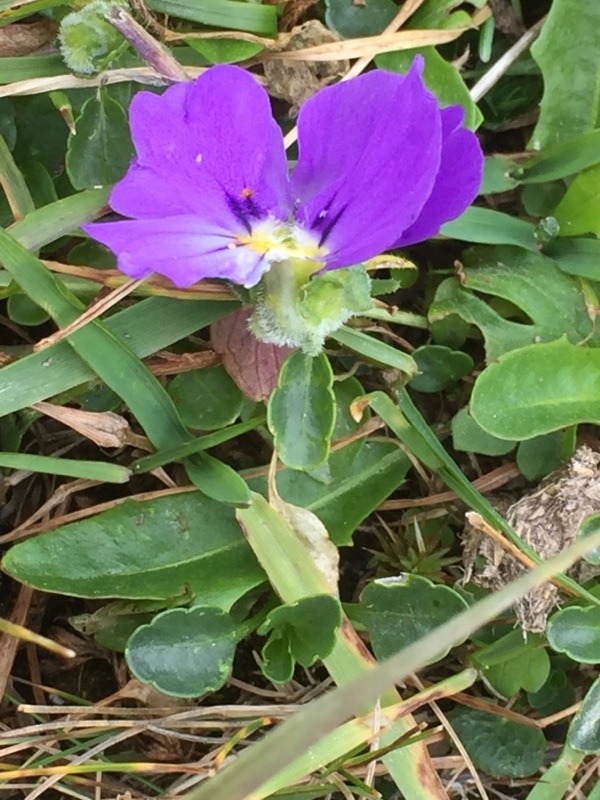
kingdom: Plantae
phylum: Tracheophyta
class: Magnoliopsida
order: Malpighiales
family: Violaceae
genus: Viola
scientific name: Viola calcarata
